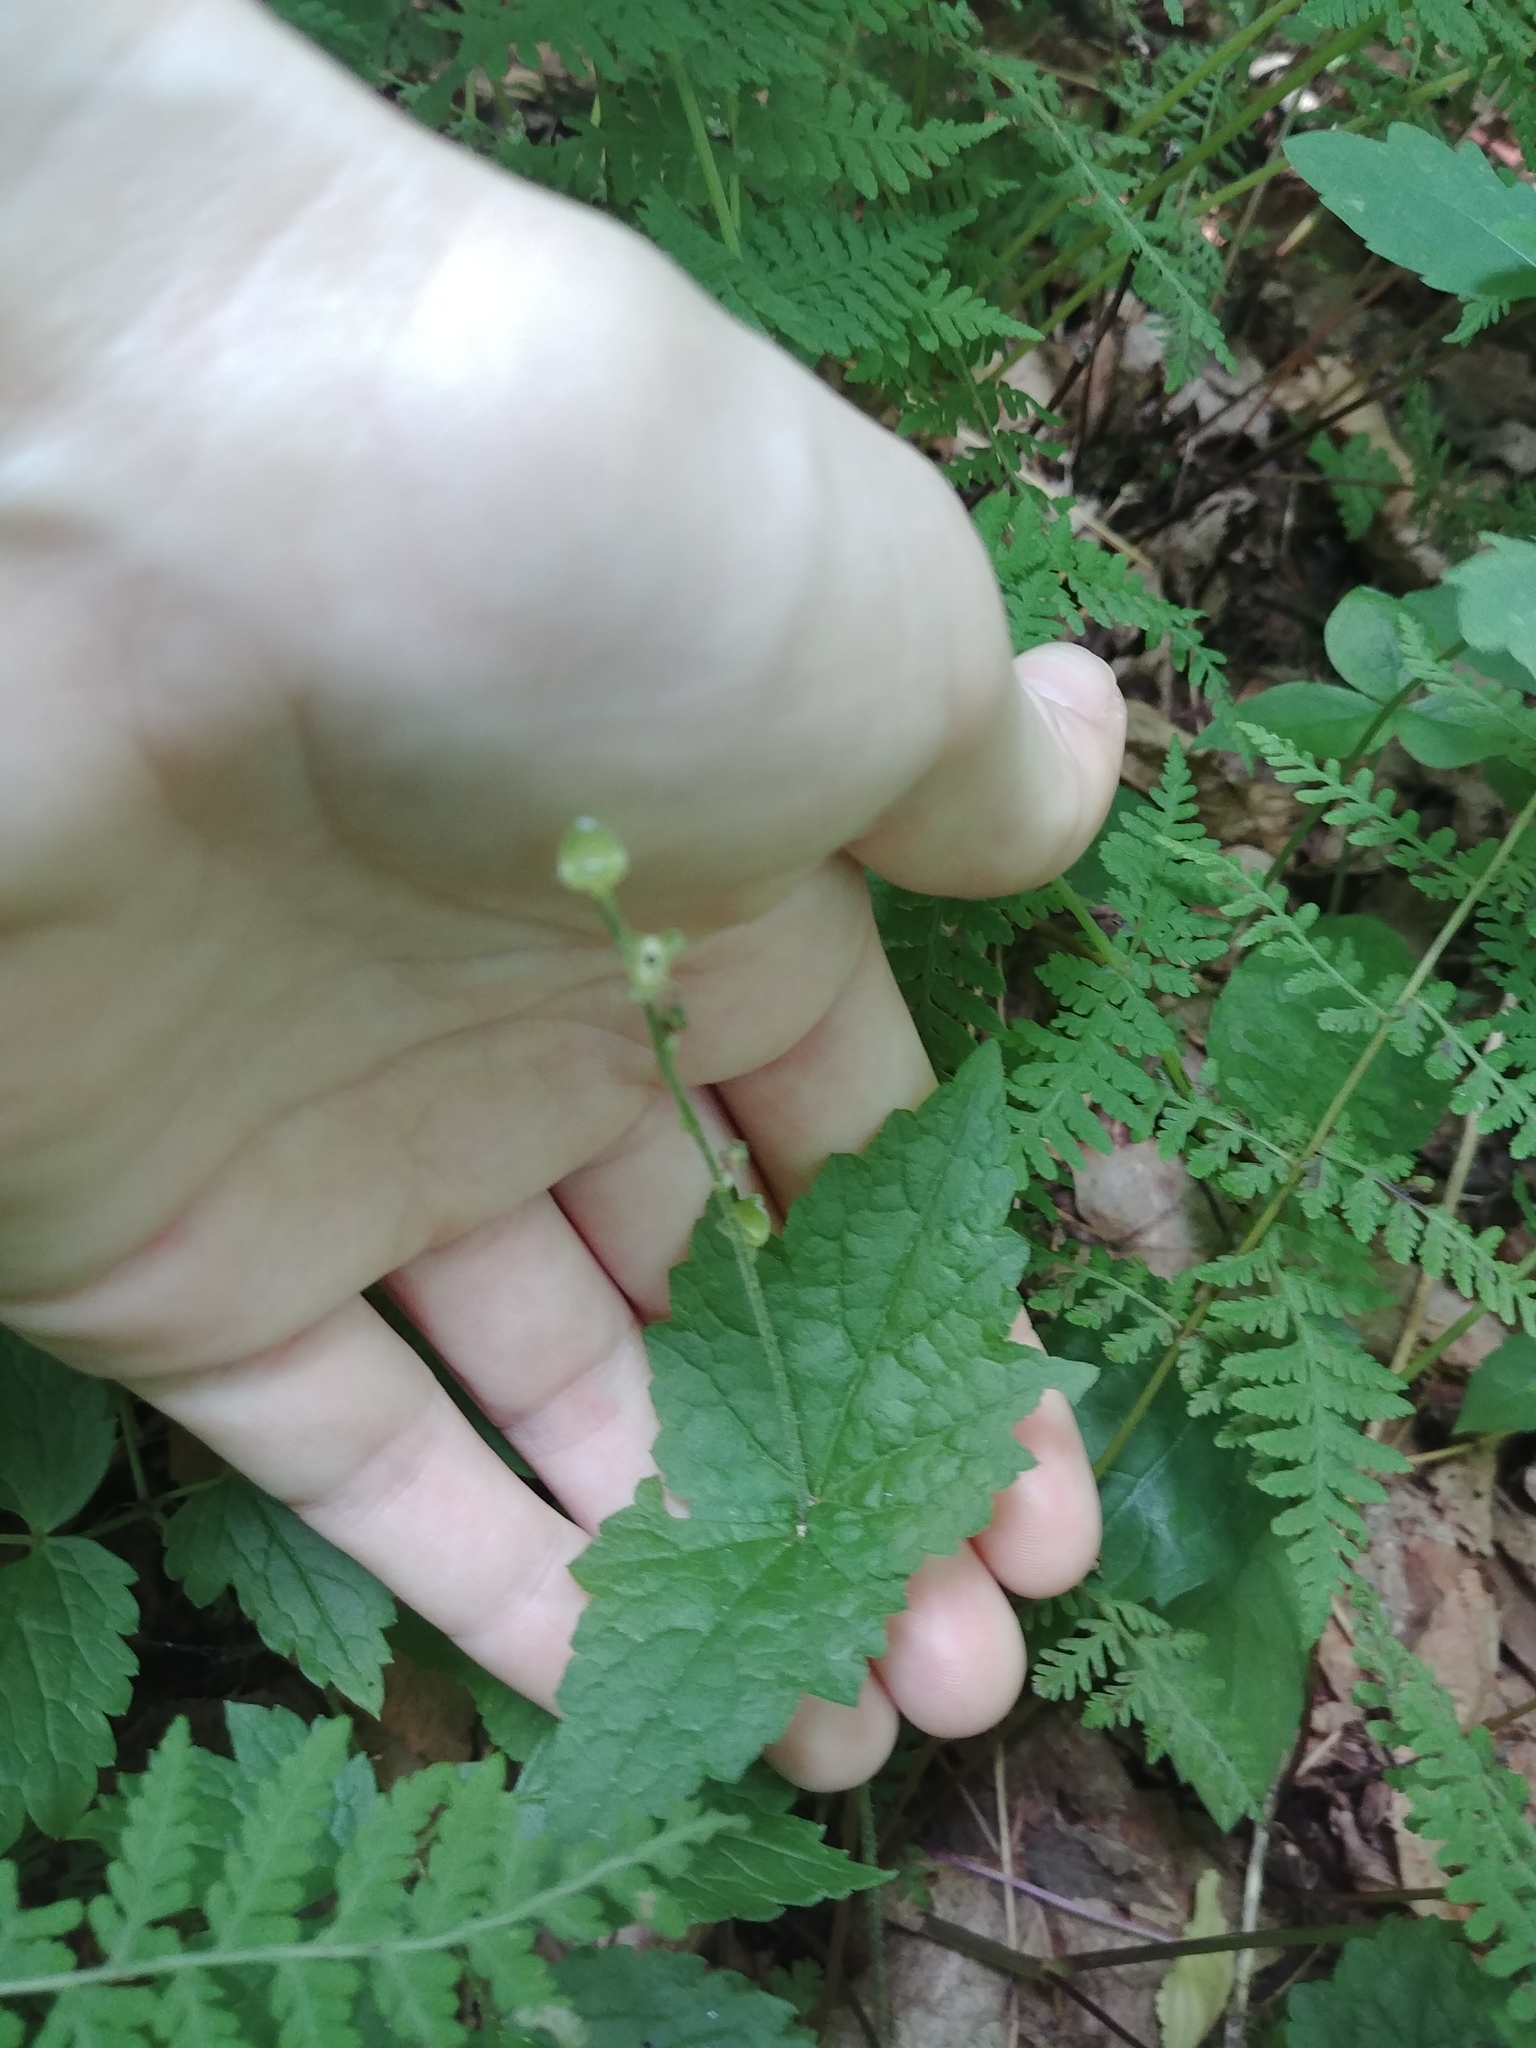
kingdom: Plantae
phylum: Tracheophyta
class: Magnoliopsida
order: Saxifragales
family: Saxifragaceae
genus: Mitella
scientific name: Mitella diphylla
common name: Coolwort
